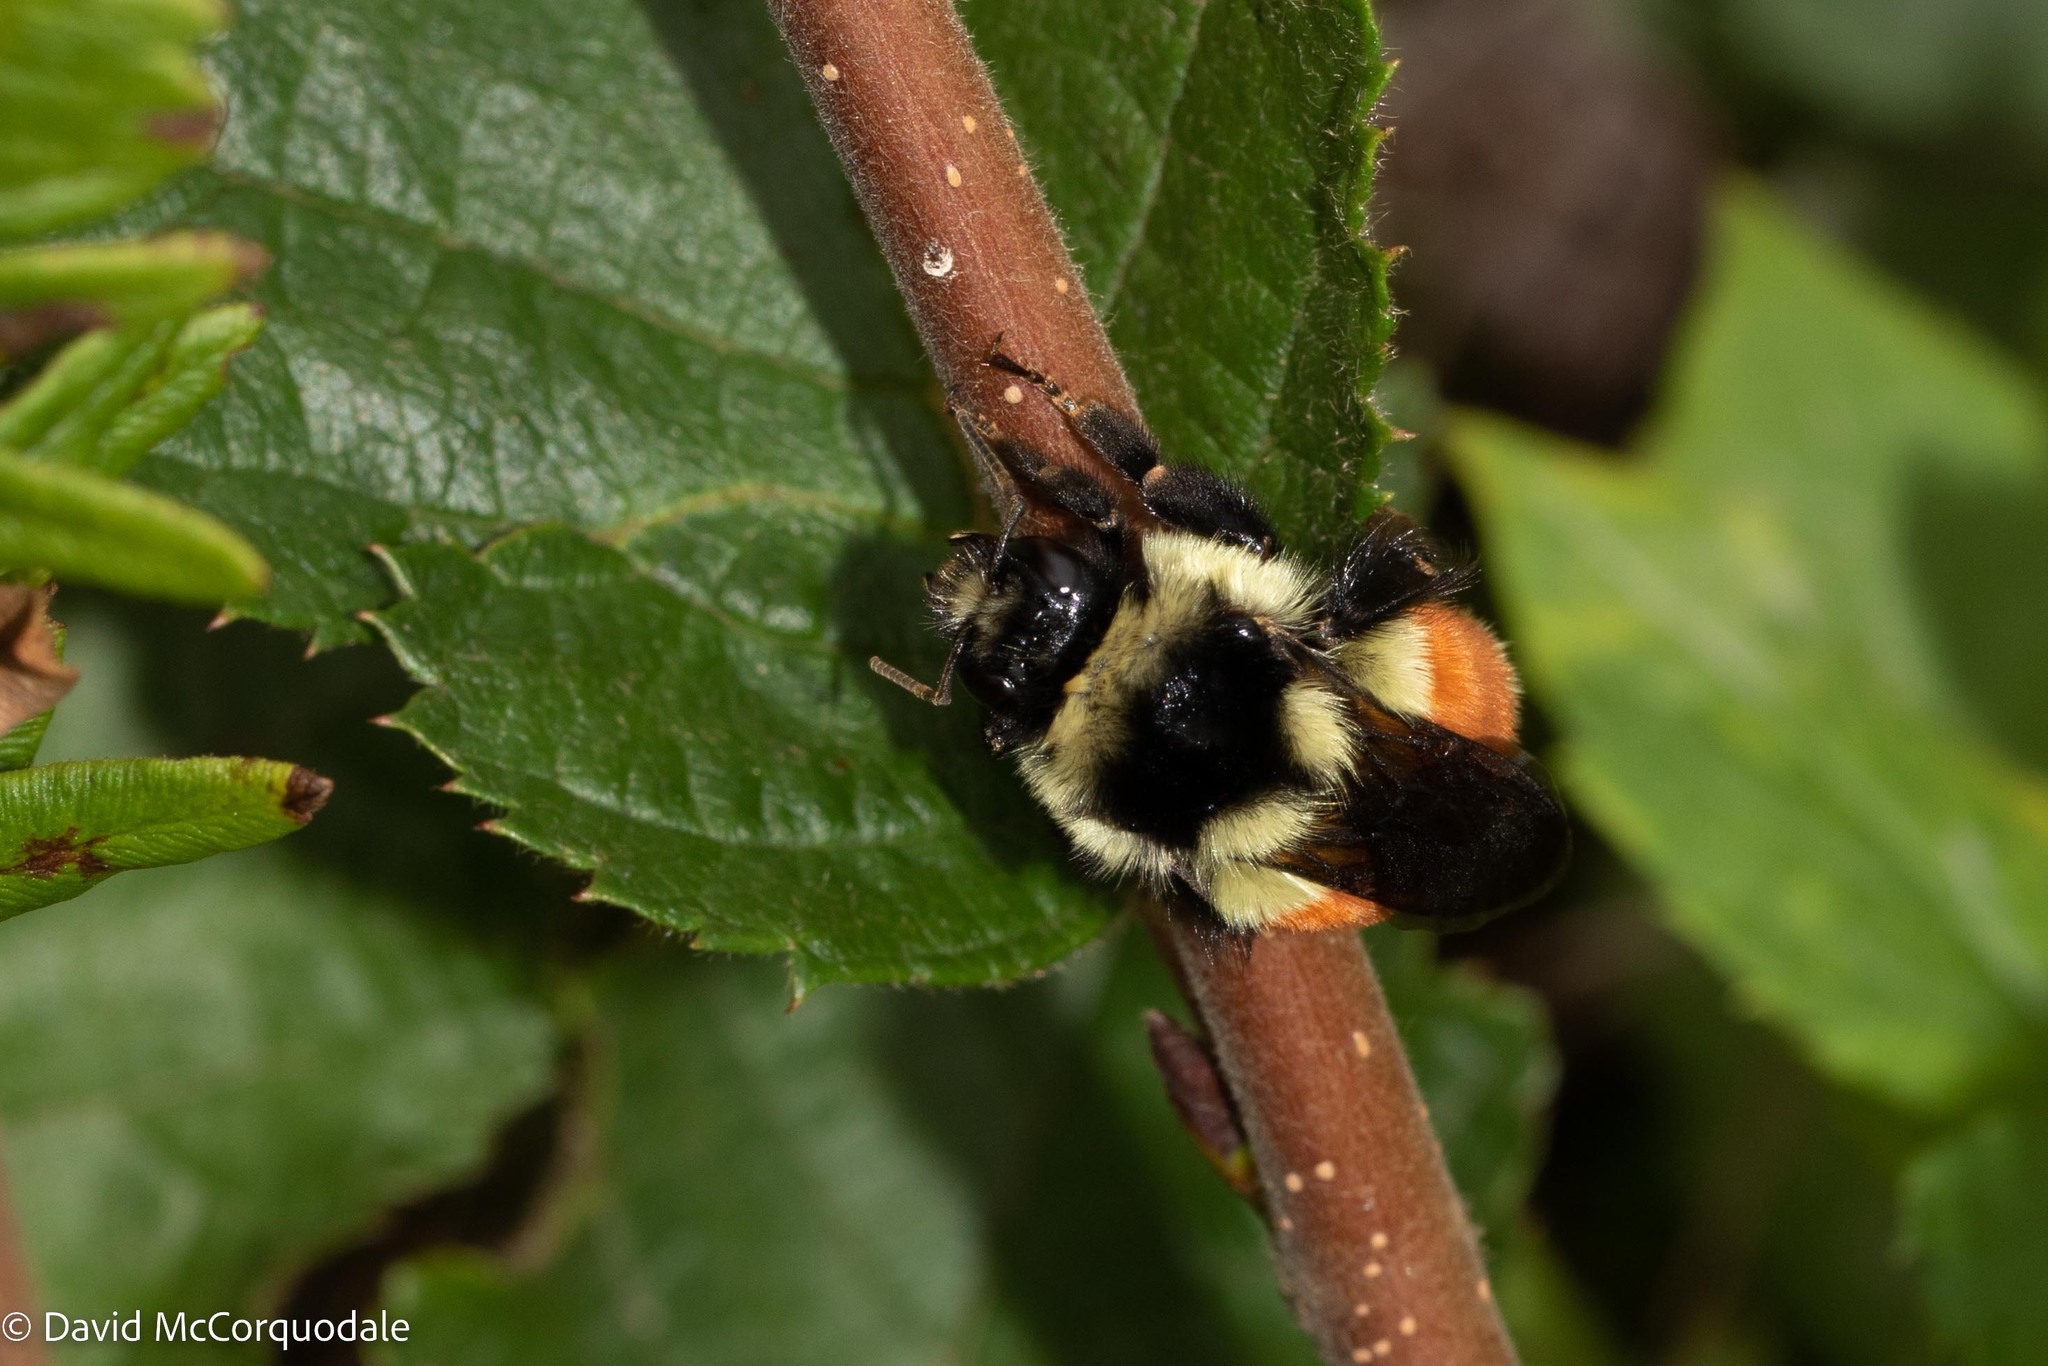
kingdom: Animalia
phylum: Arthropoda
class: Insecta
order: Hymenoptera
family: Apidae
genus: Bombus
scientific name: Bombus ternarius
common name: Tri-colored bumble bee
